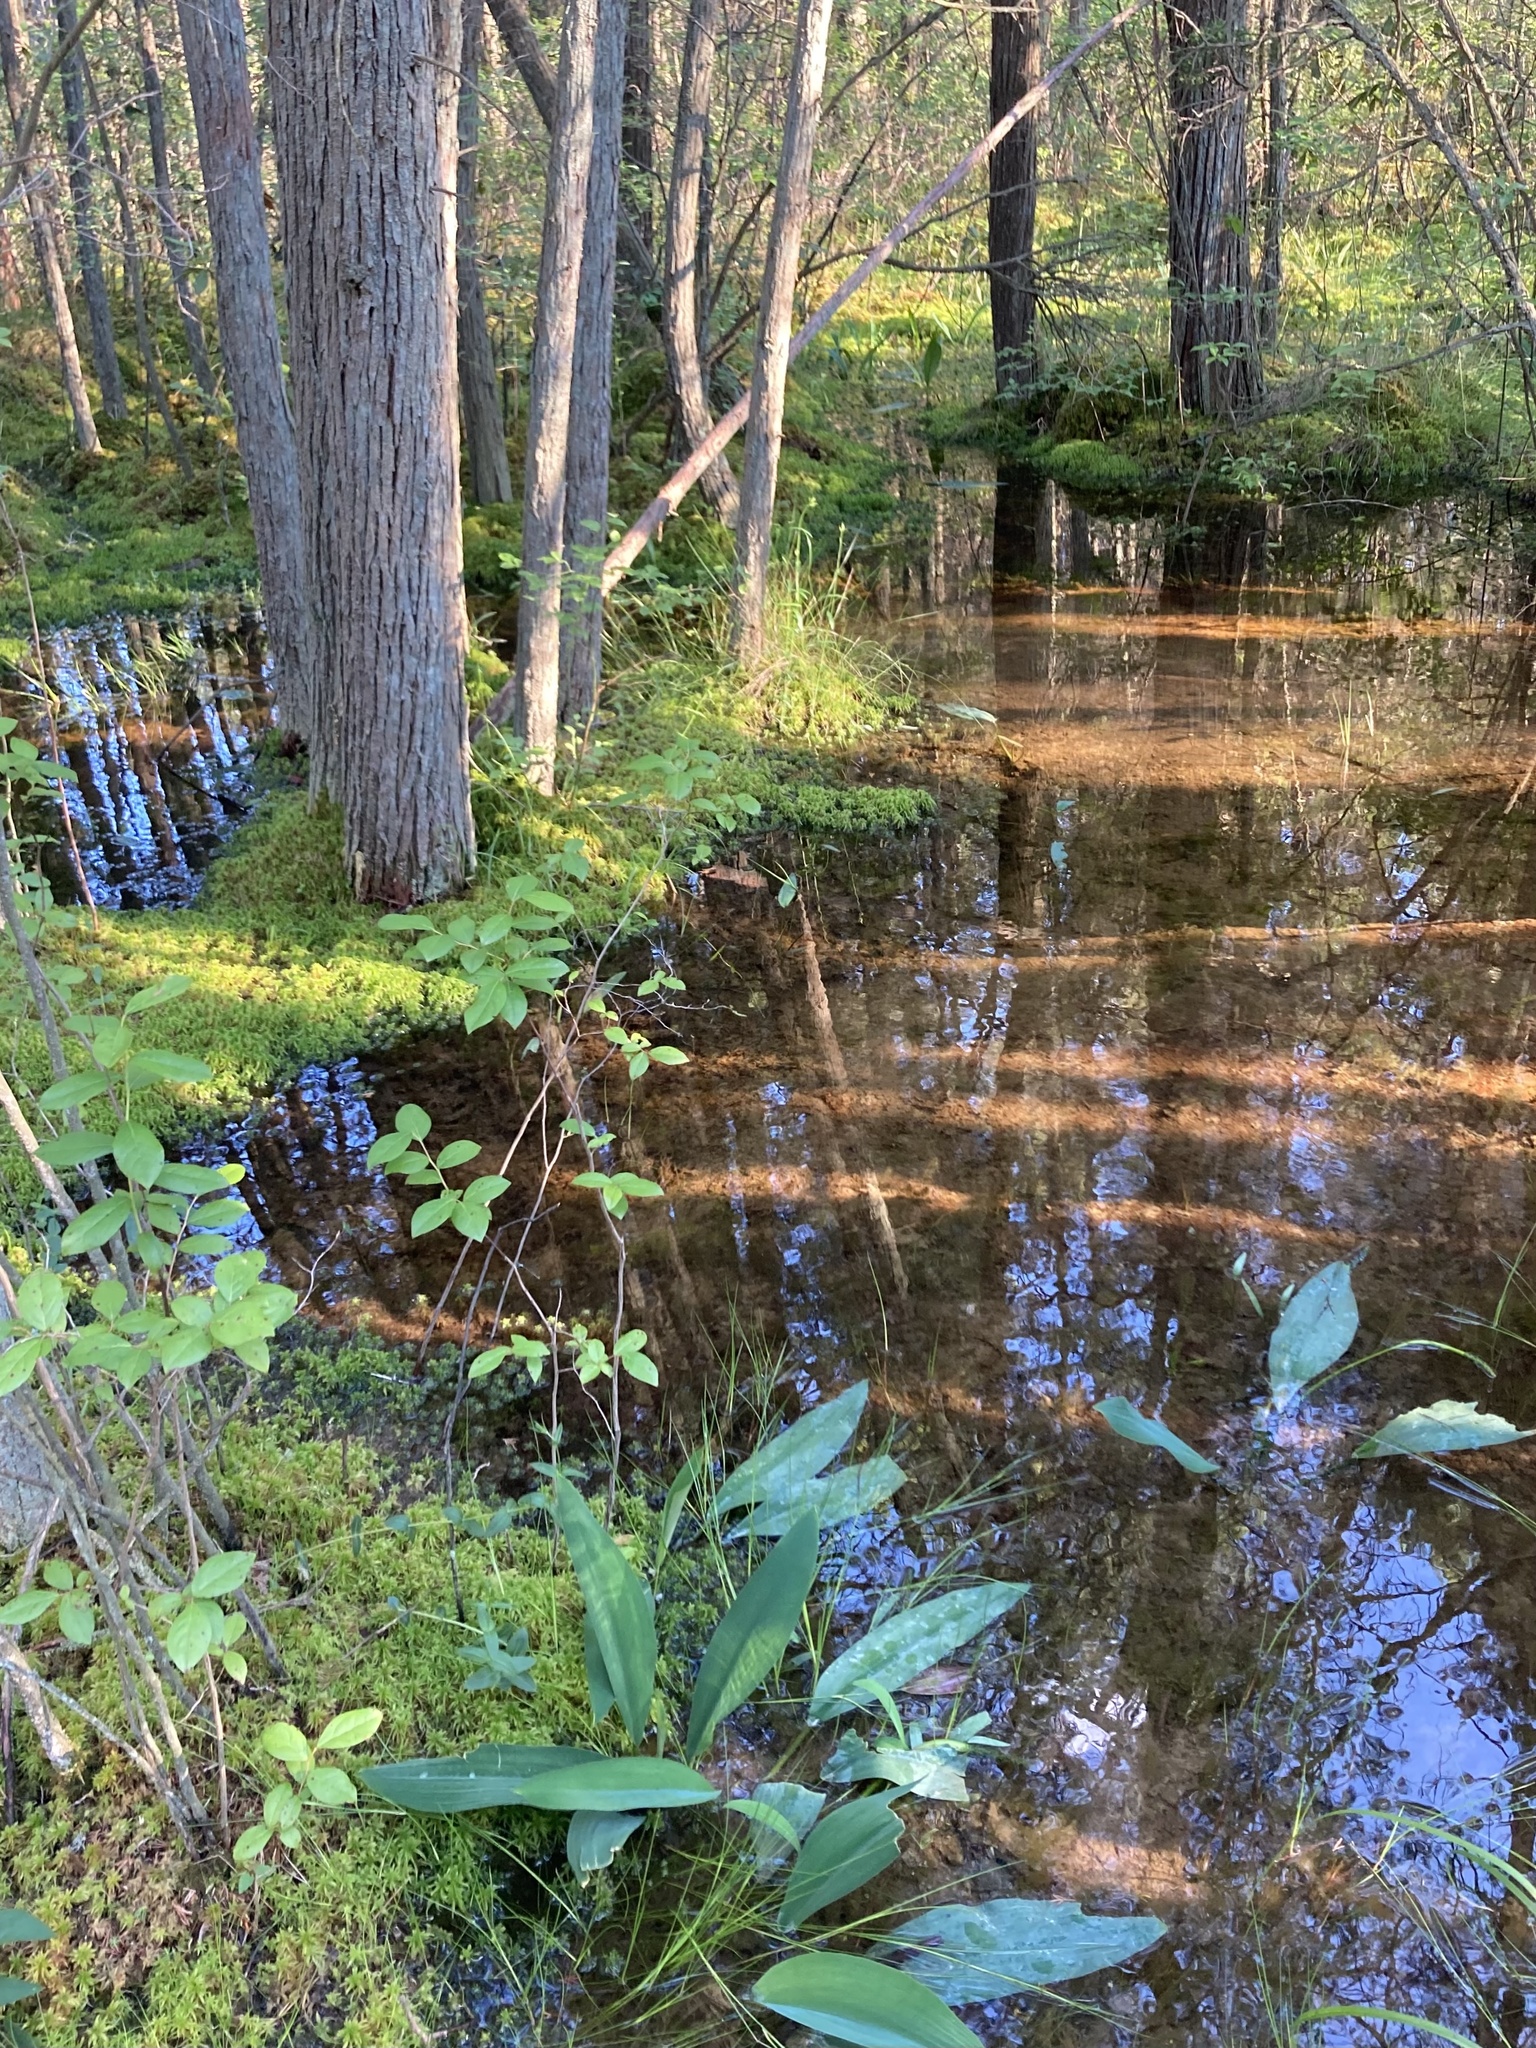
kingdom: Plantae
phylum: Tracheophyta
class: Liliopsida
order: Alismatales
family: Araceae
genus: Orontium
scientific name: Orontium aquaticum
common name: Golden-club
